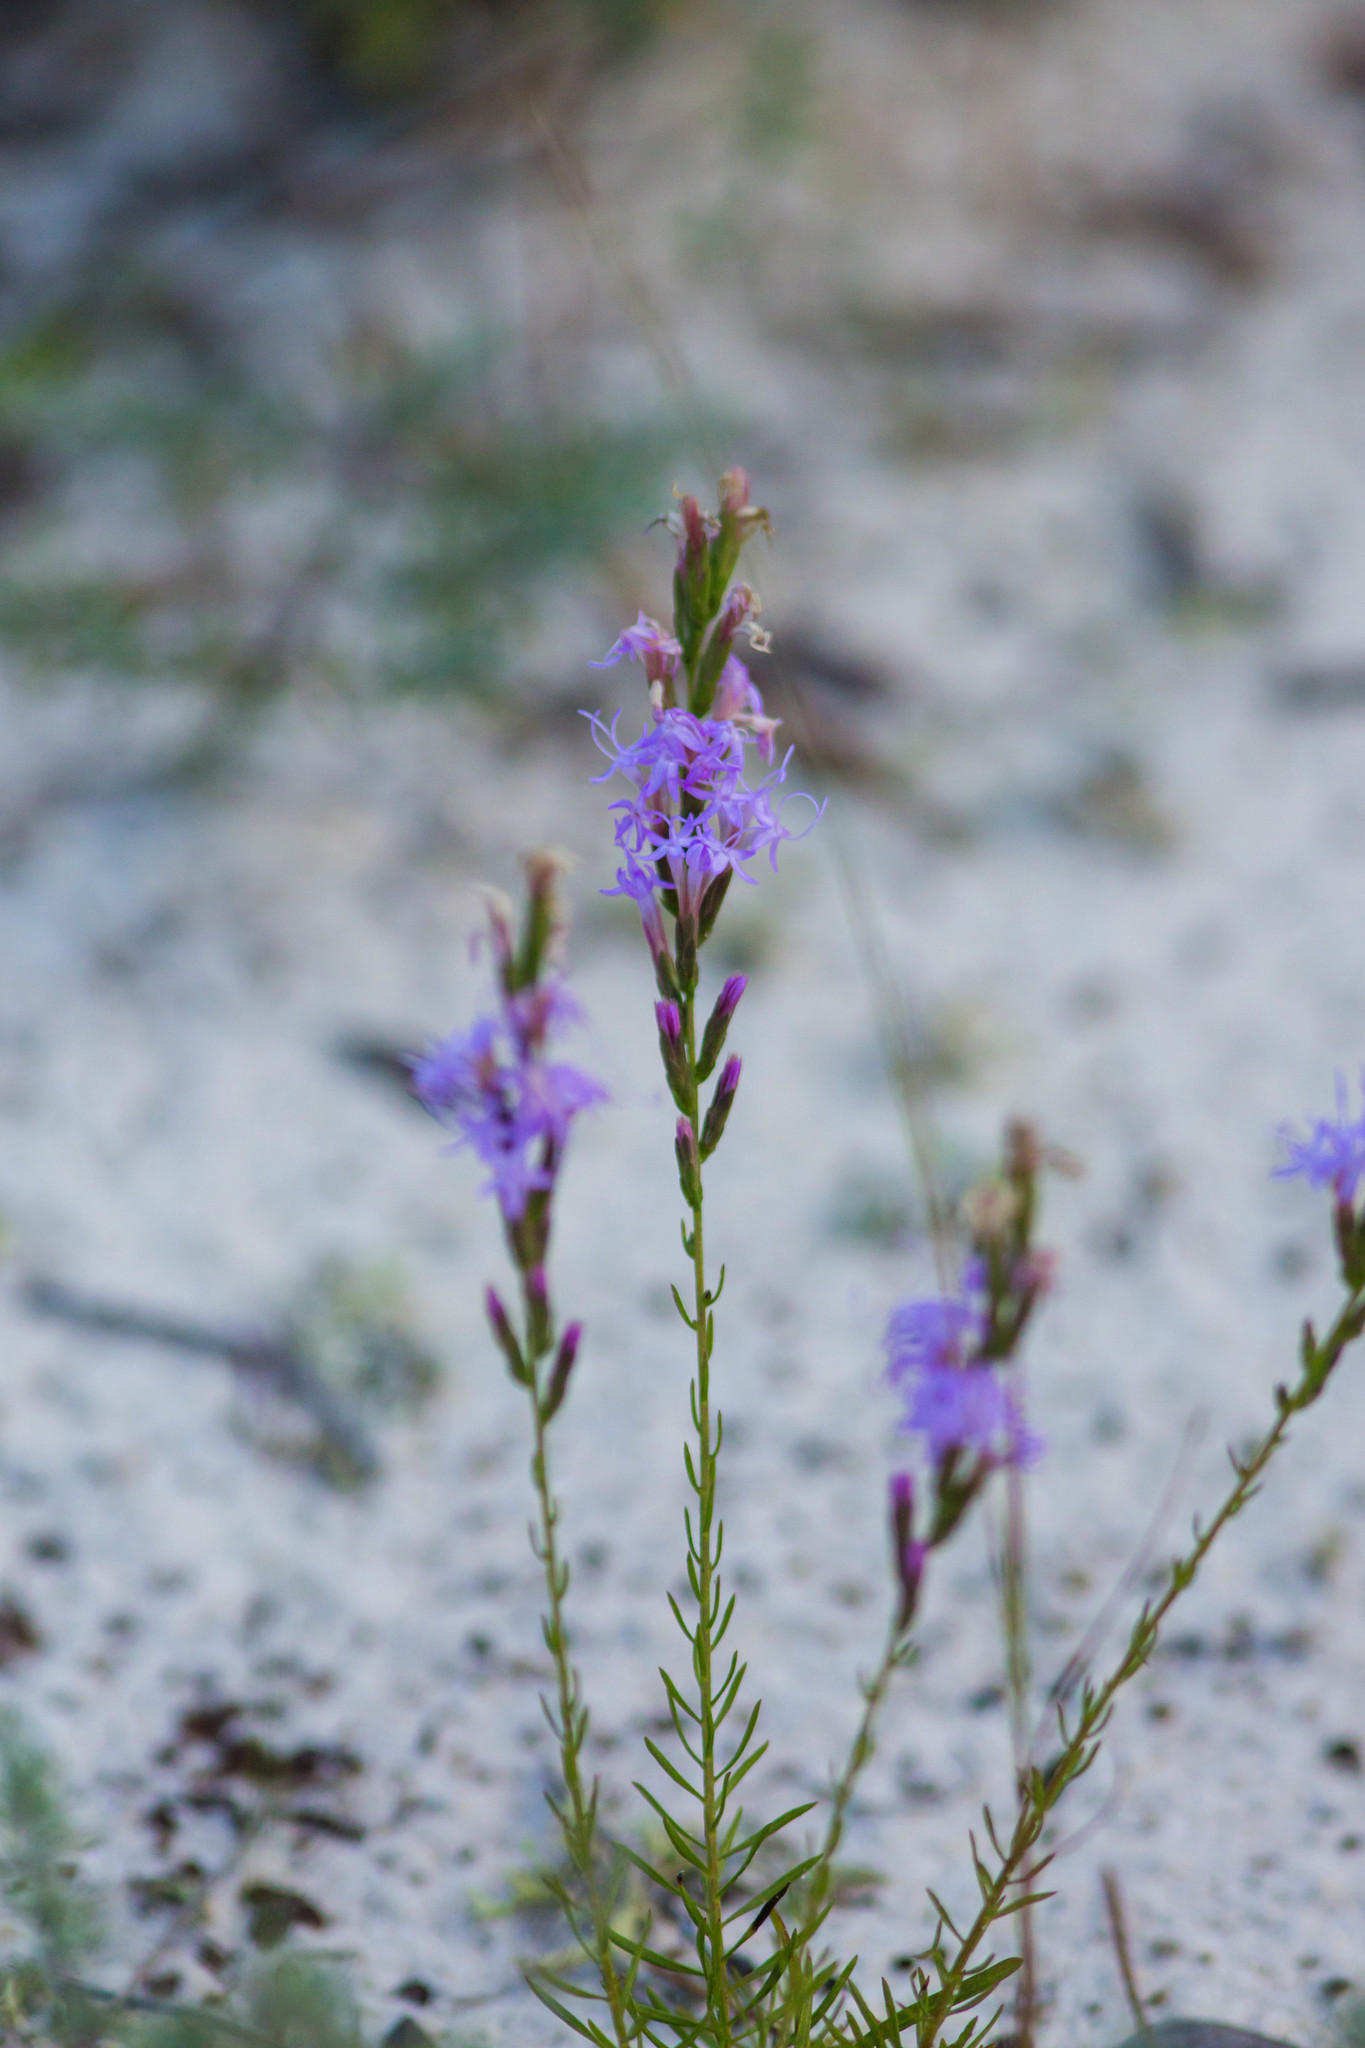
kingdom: Plantae
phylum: Tracheophyta
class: Magnoliopsida
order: Asterales
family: Asteraceae
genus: Liatris
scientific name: Liatris chapmanii
